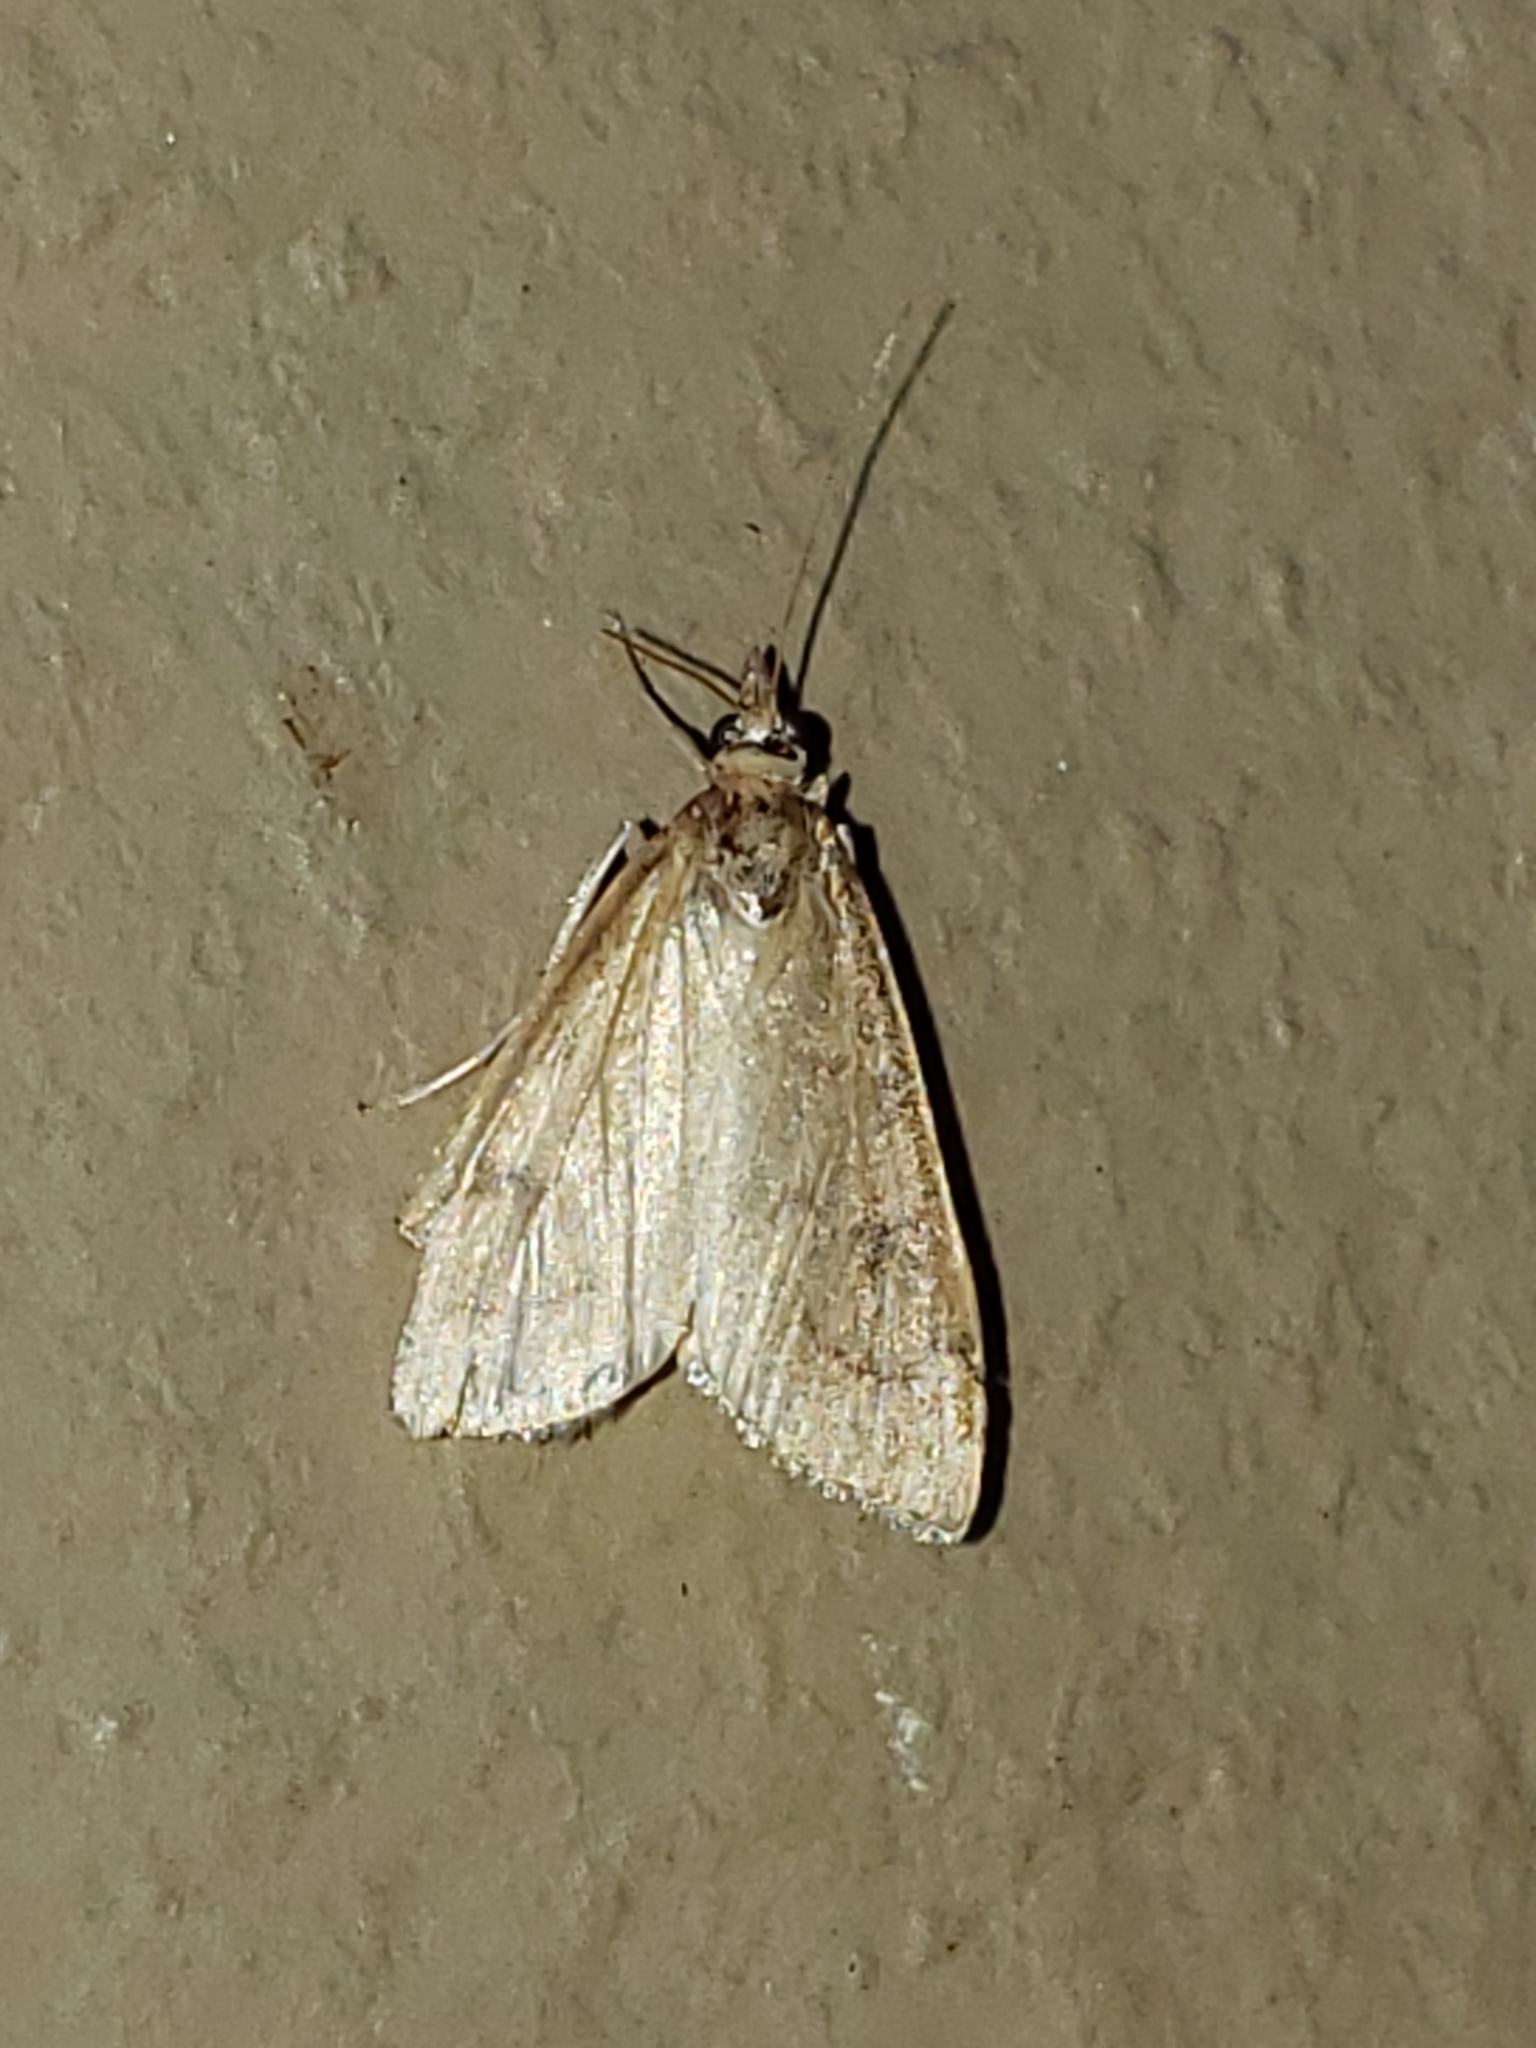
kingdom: Animalia
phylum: Arthropoda
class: Insecta
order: Lepidoptera
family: Crambidae
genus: Udea
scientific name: Udea rubigalis
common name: Celery leaftier moth
